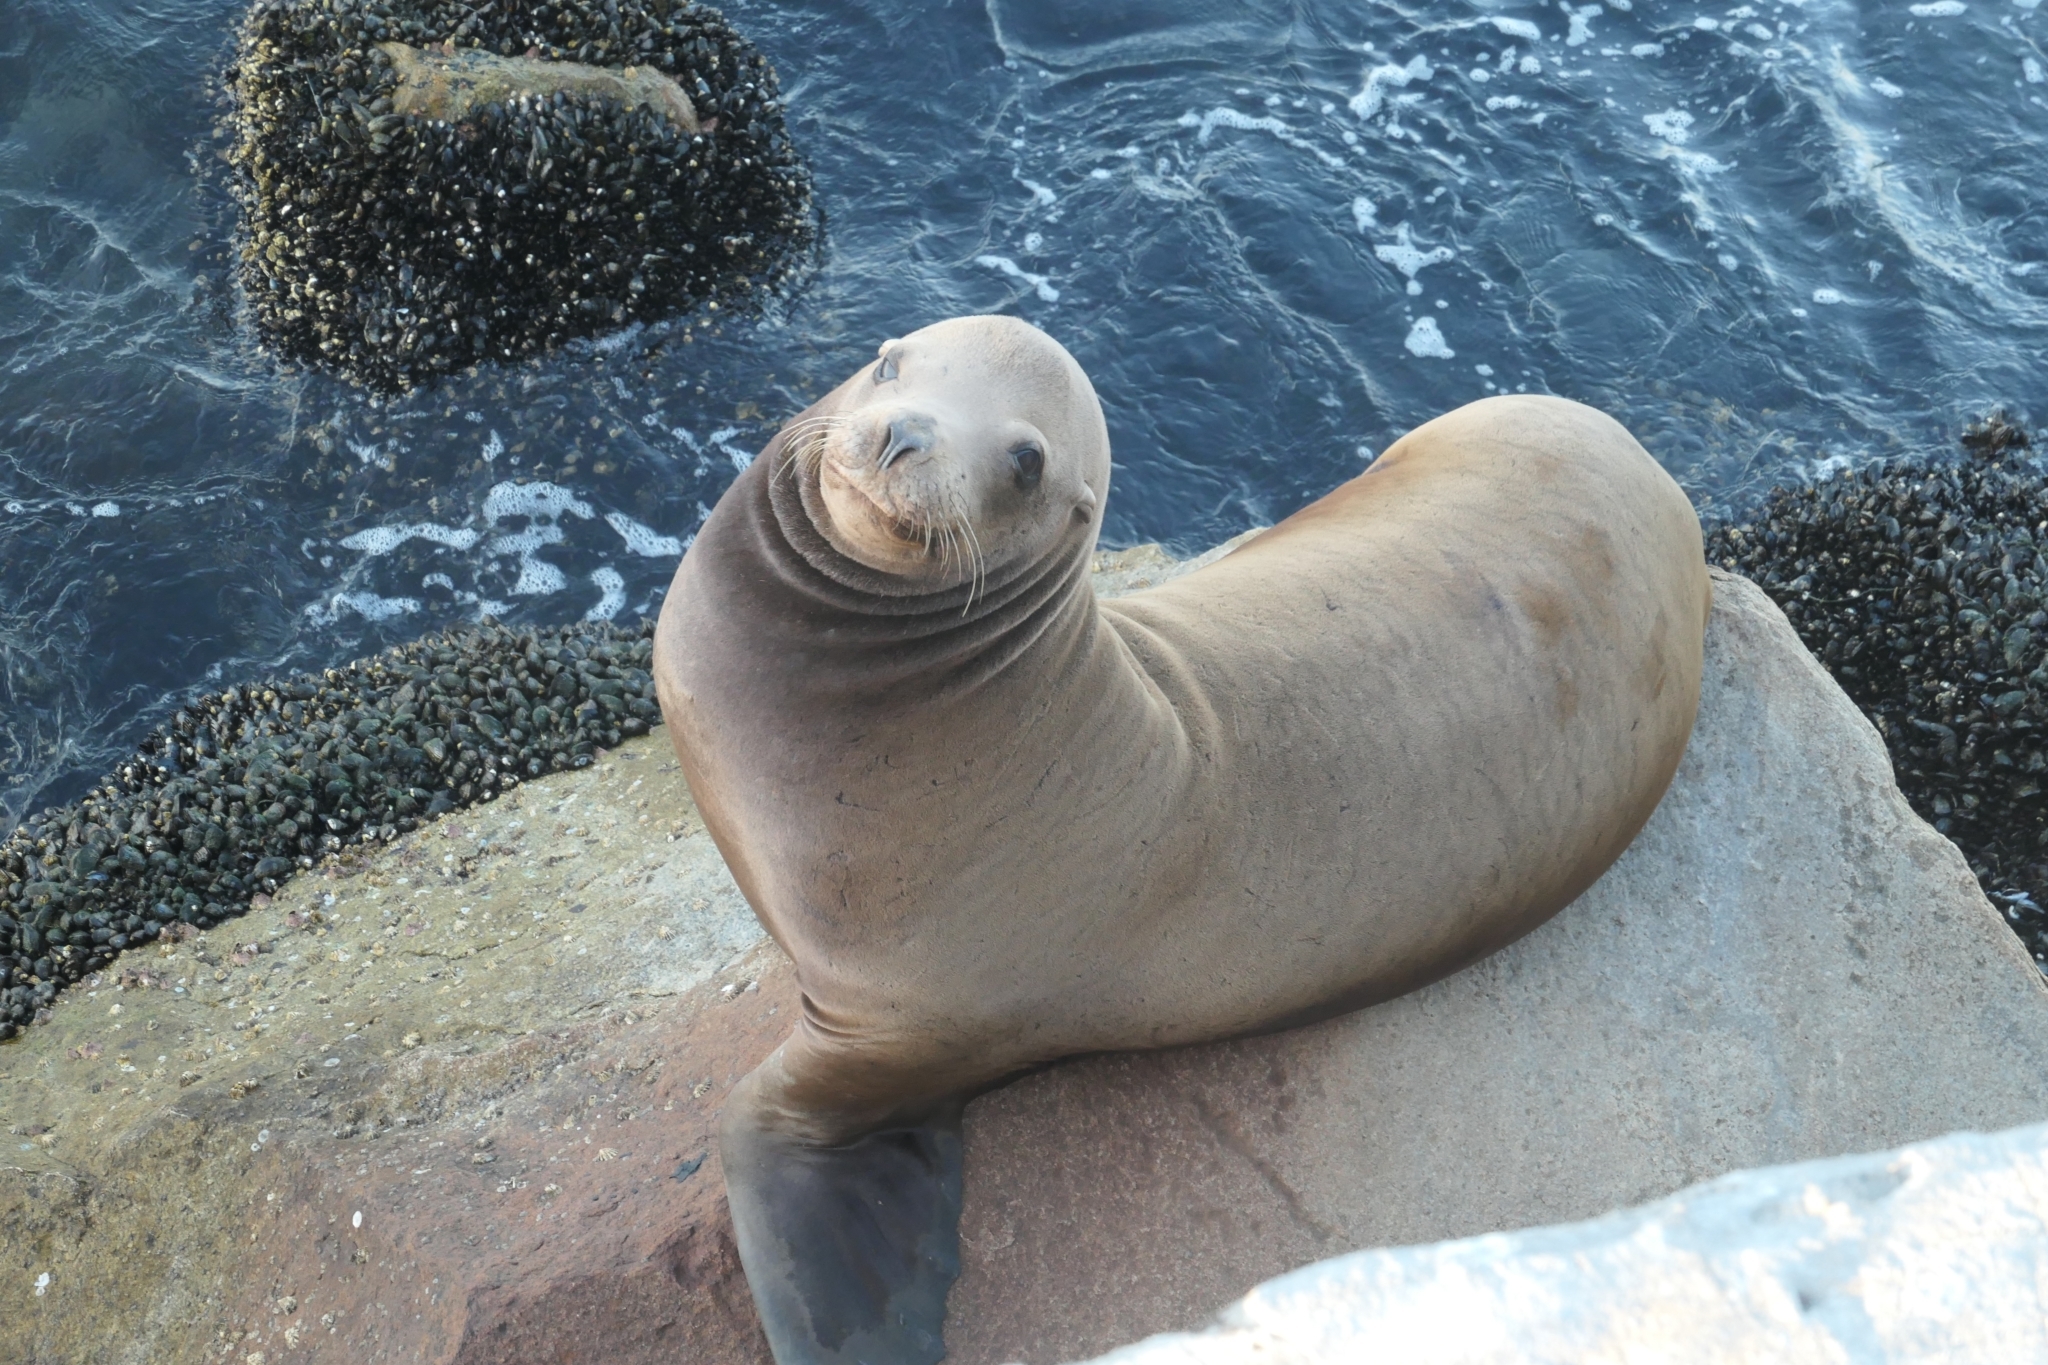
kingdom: Animalia
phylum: Chordata
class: Mammalia
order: Carnivora
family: Otariidae
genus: Zalophus
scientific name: Zalophus californianus
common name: California sea lion
